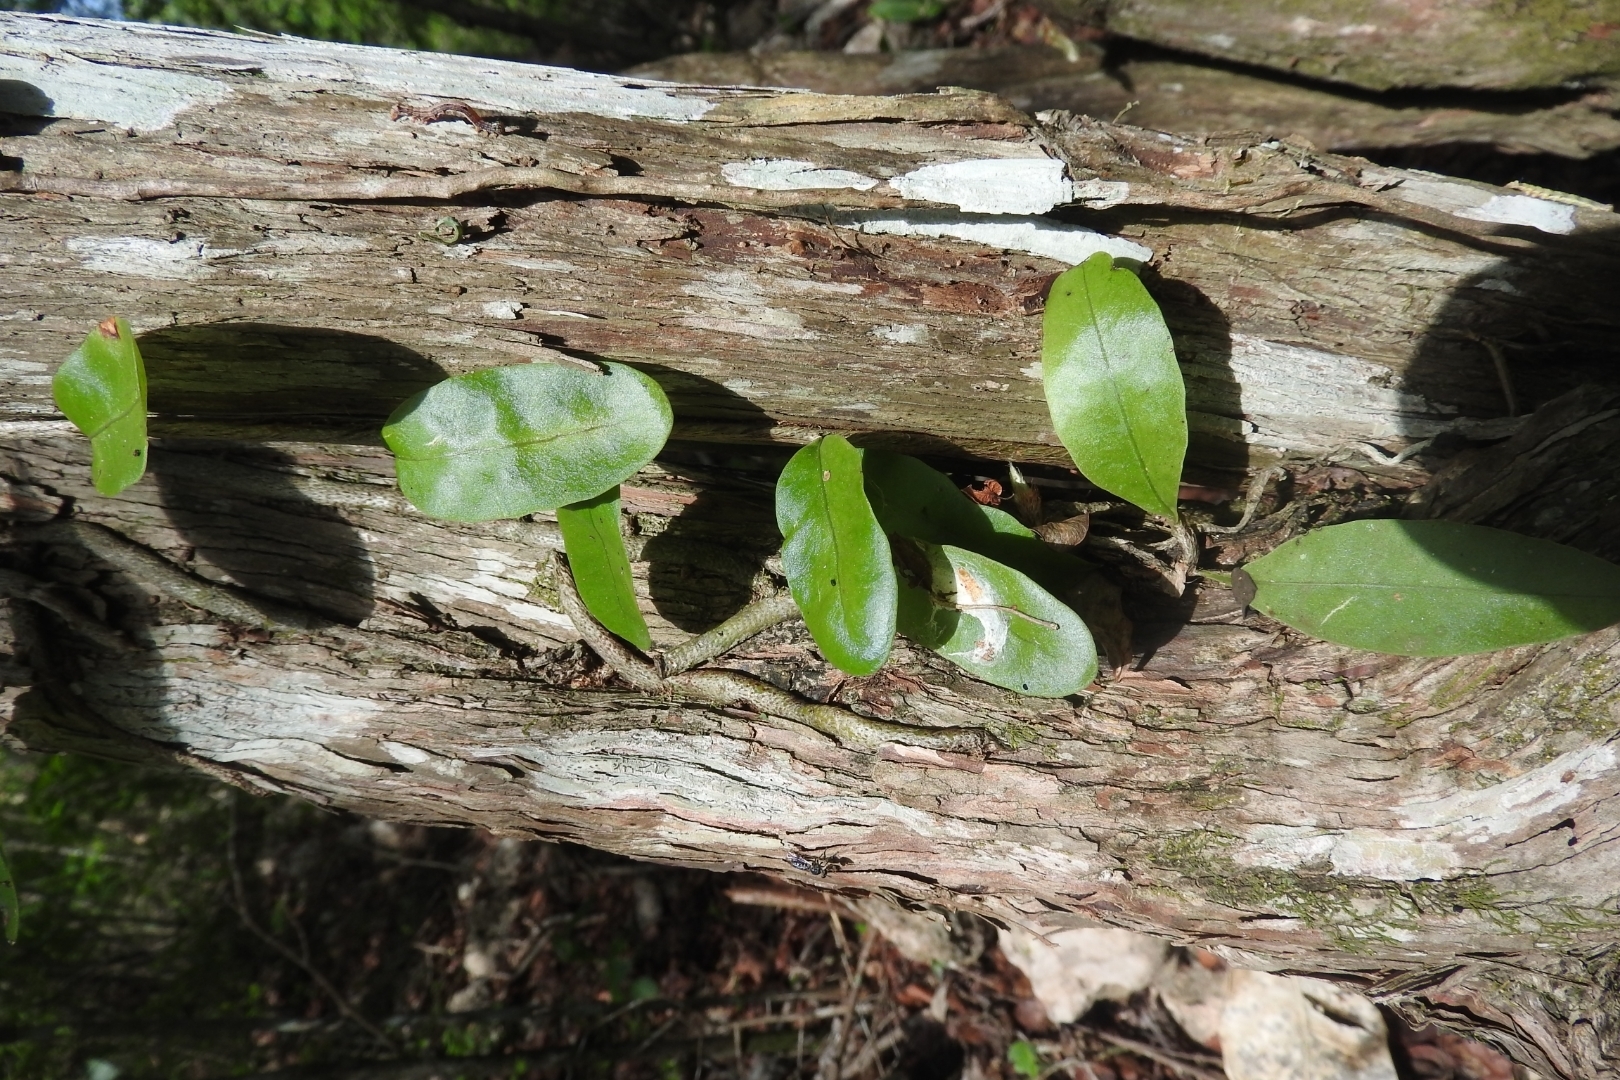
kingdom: Plantae
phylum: Tracheophyta
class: Polypodiopsida
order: Polypodiales
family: Polypodiaceae
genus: Microgramma
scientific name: Microgramma nitida
